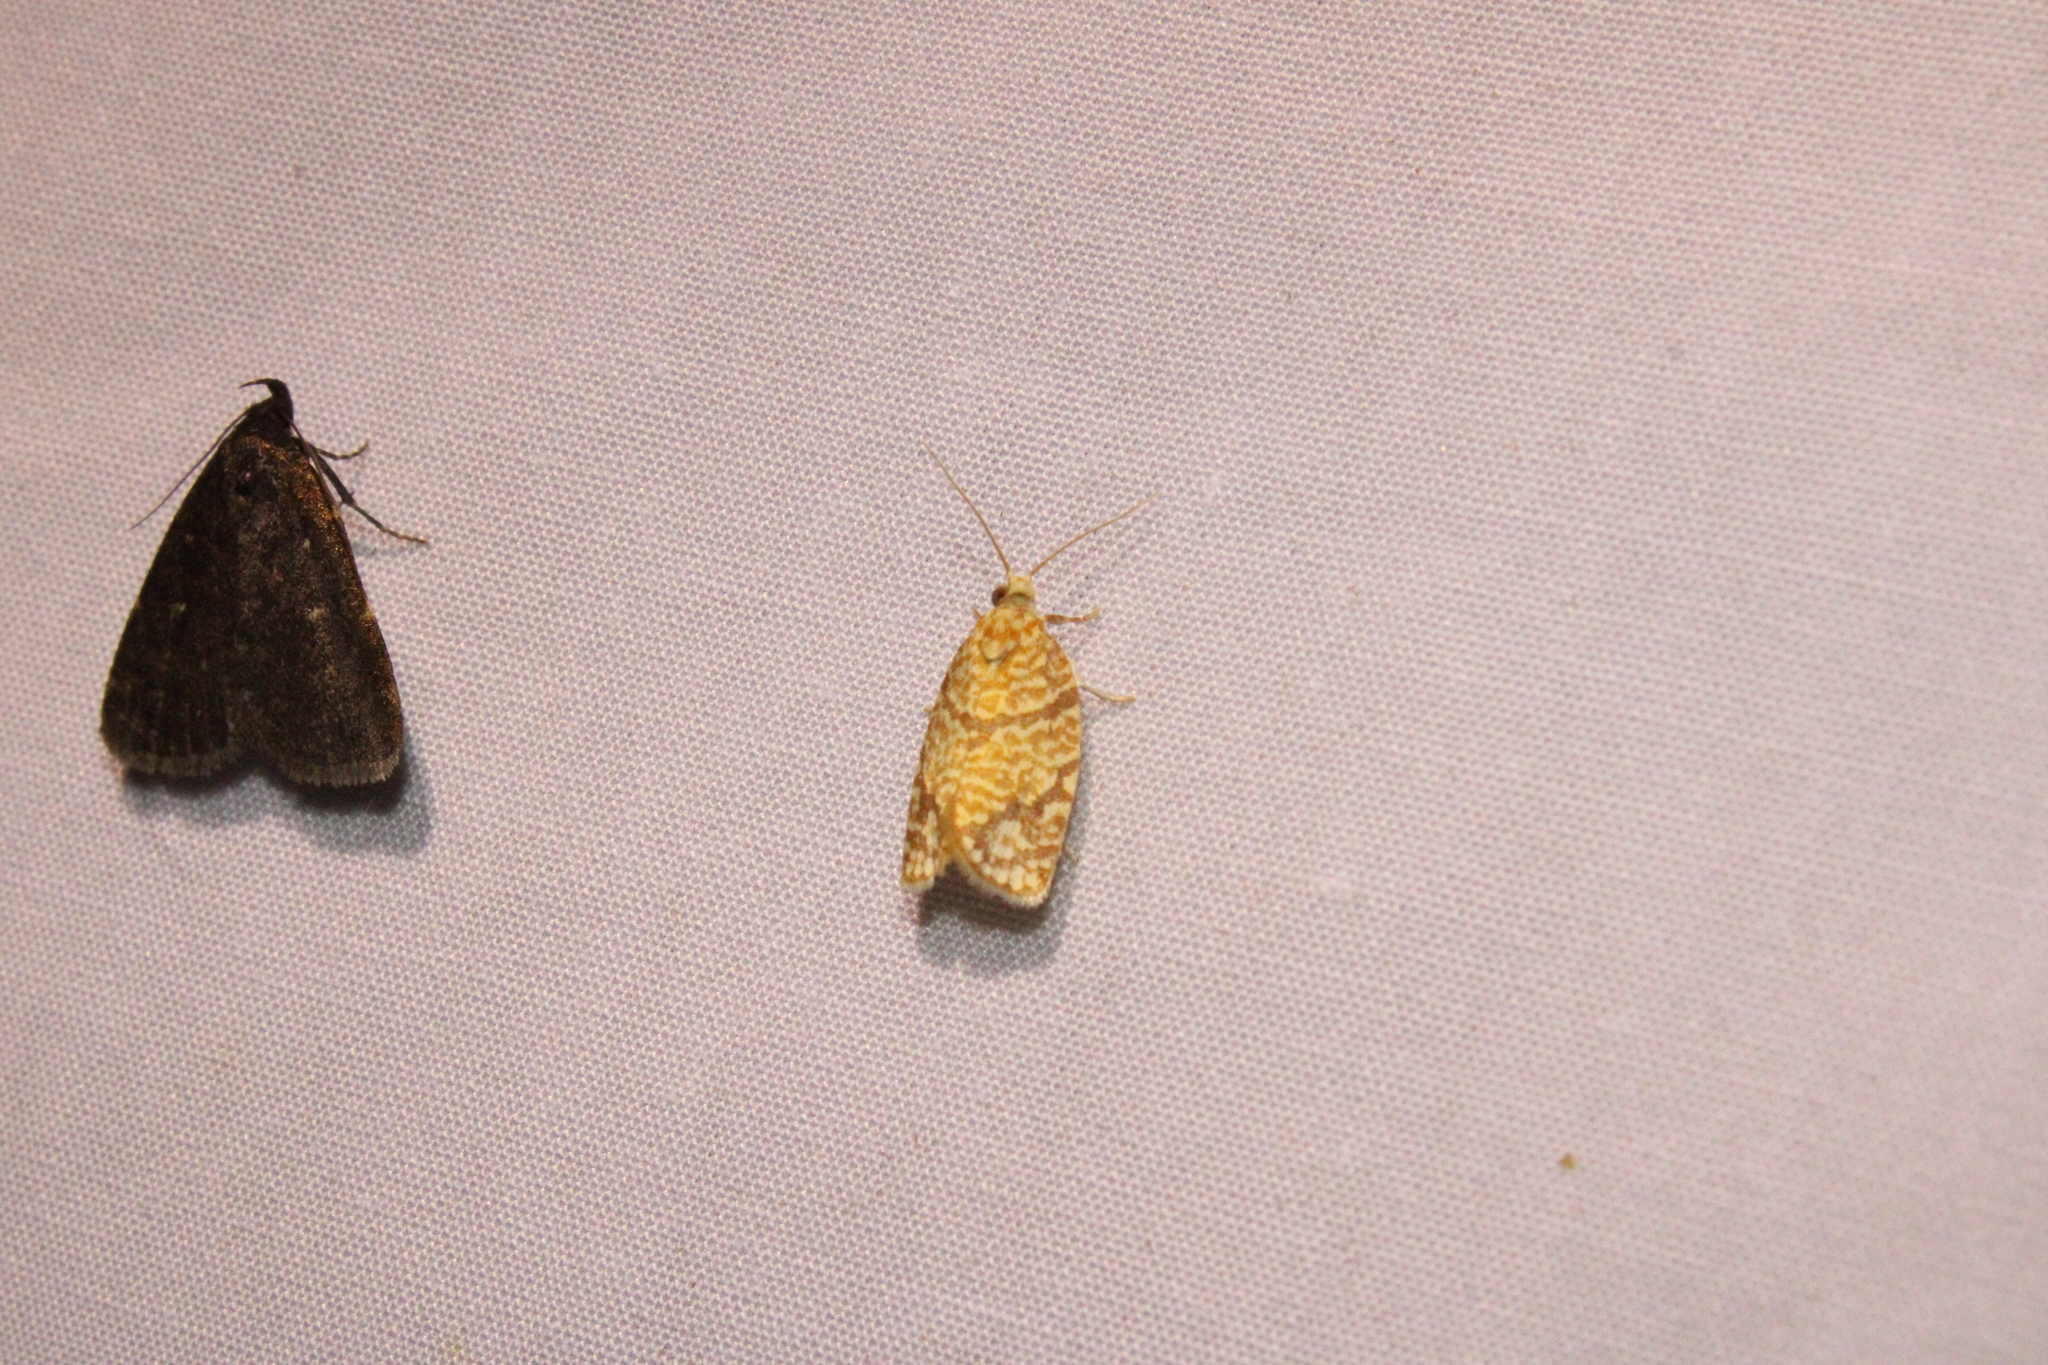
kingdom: Animalia
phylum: Arthropoda
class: Insecta
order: Lepidoptera
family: Tortricidae
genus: Argyrotaenia
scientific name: Argyrotaenia quercifoliana
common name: Yellow-winged oak leafroller moth
